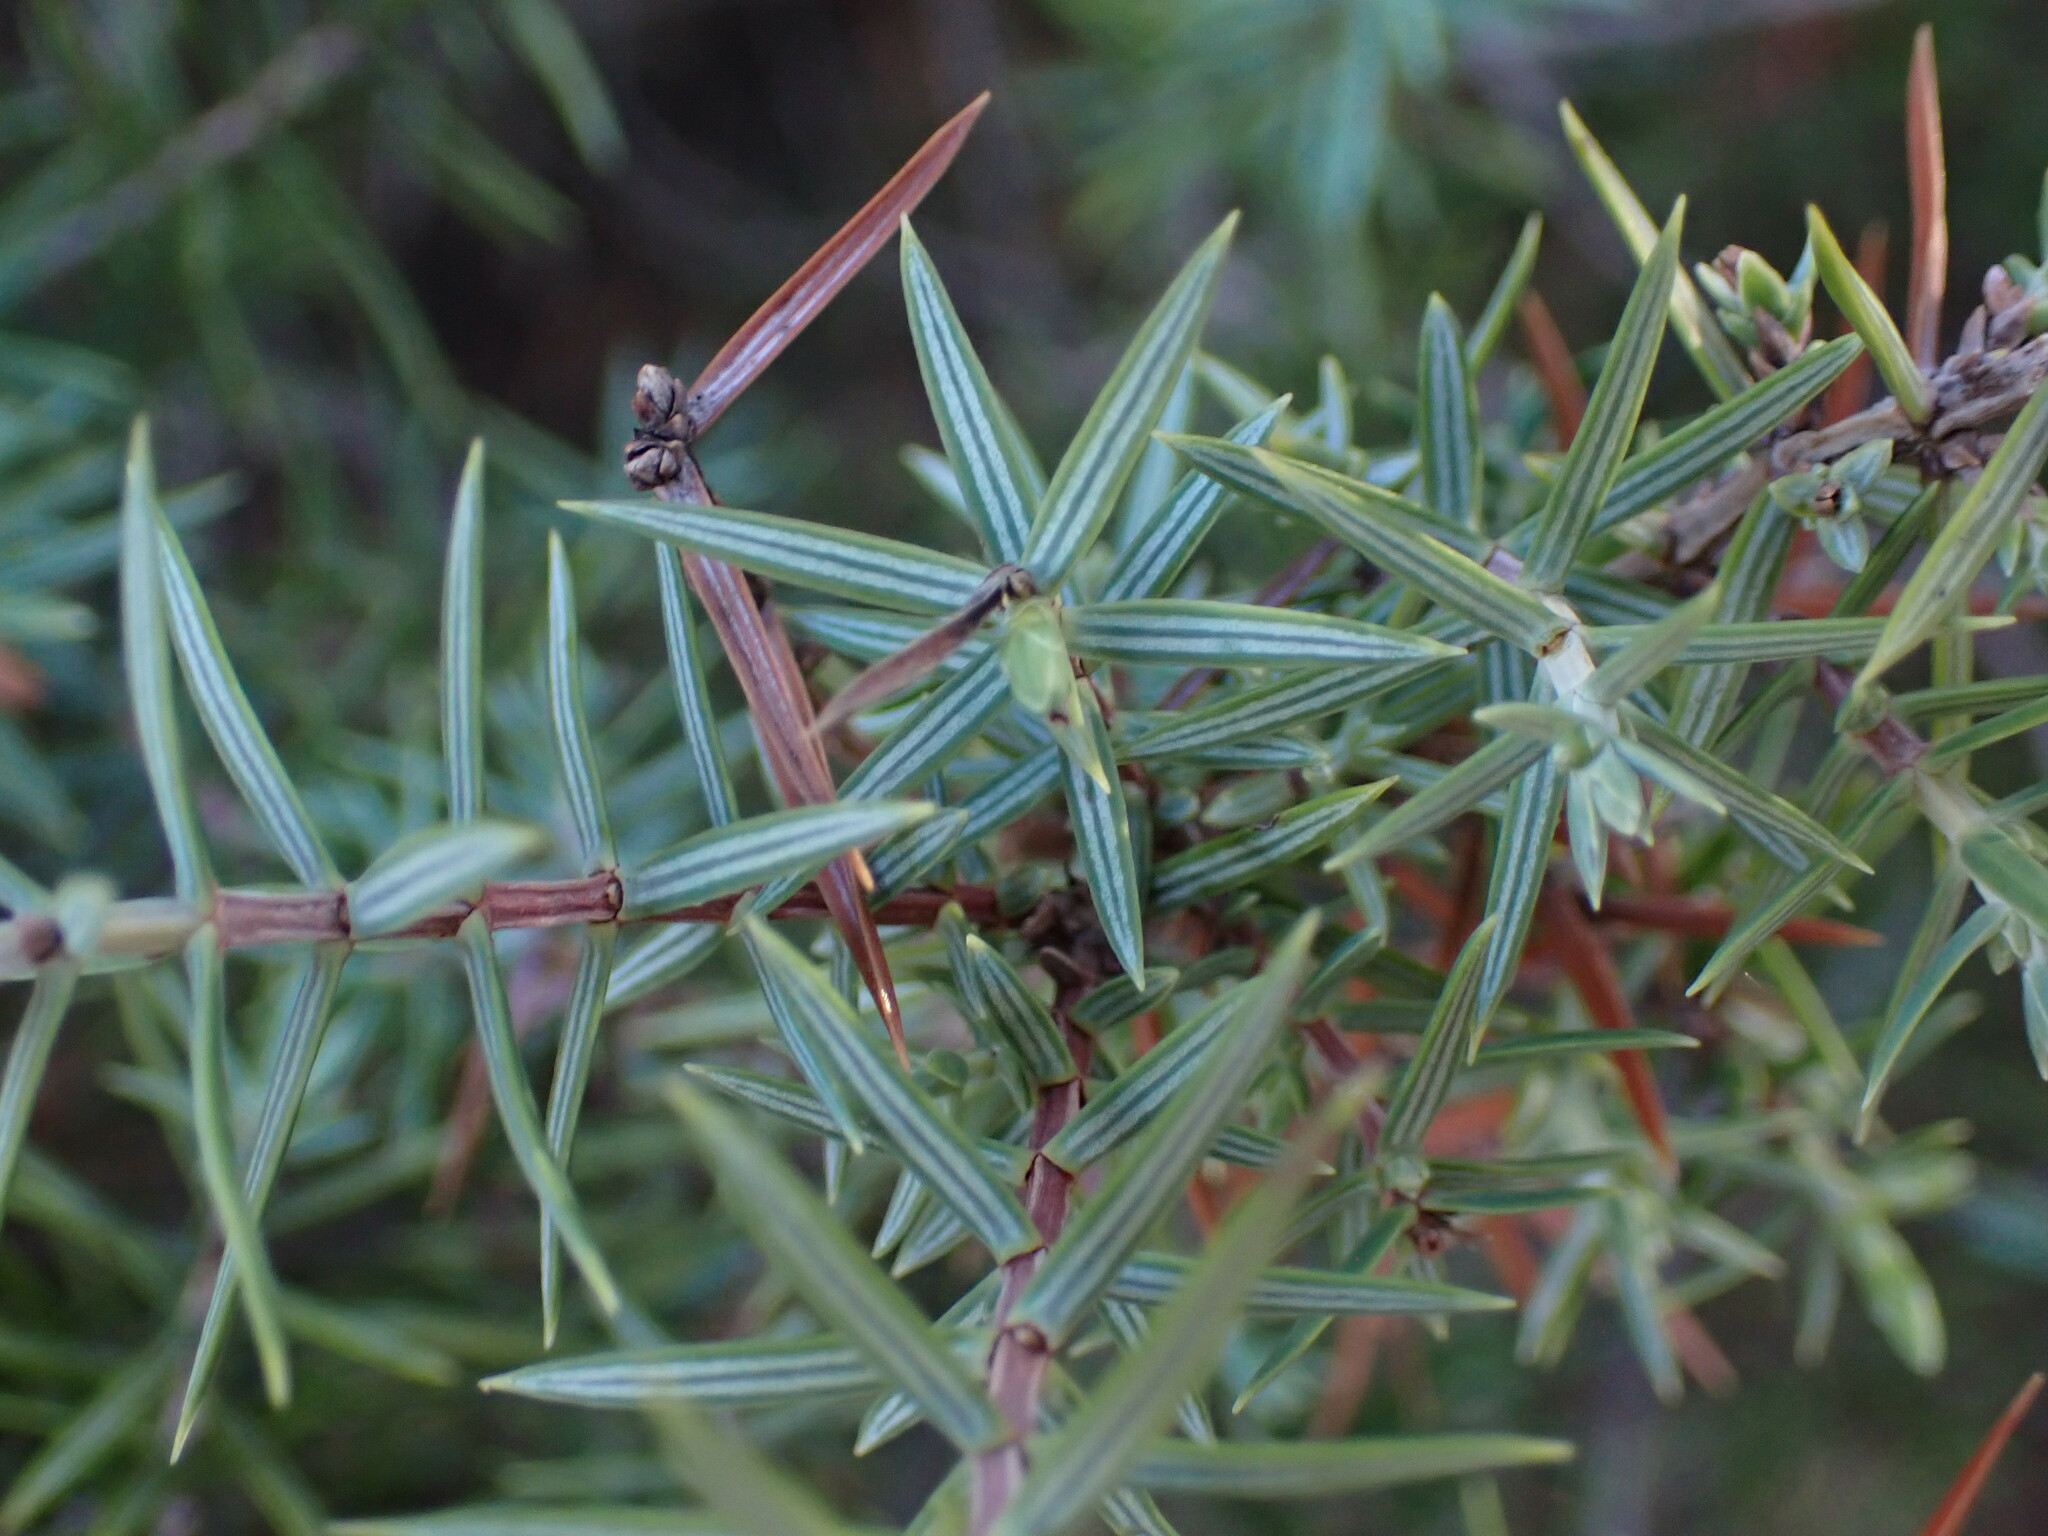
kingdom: Plantae
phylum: Tracheophyta
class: Pinopsida
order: Pinales
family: Cupressaceae
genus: Juniperus
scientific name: Juniperus oxycedrus
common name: Prickly juniper
